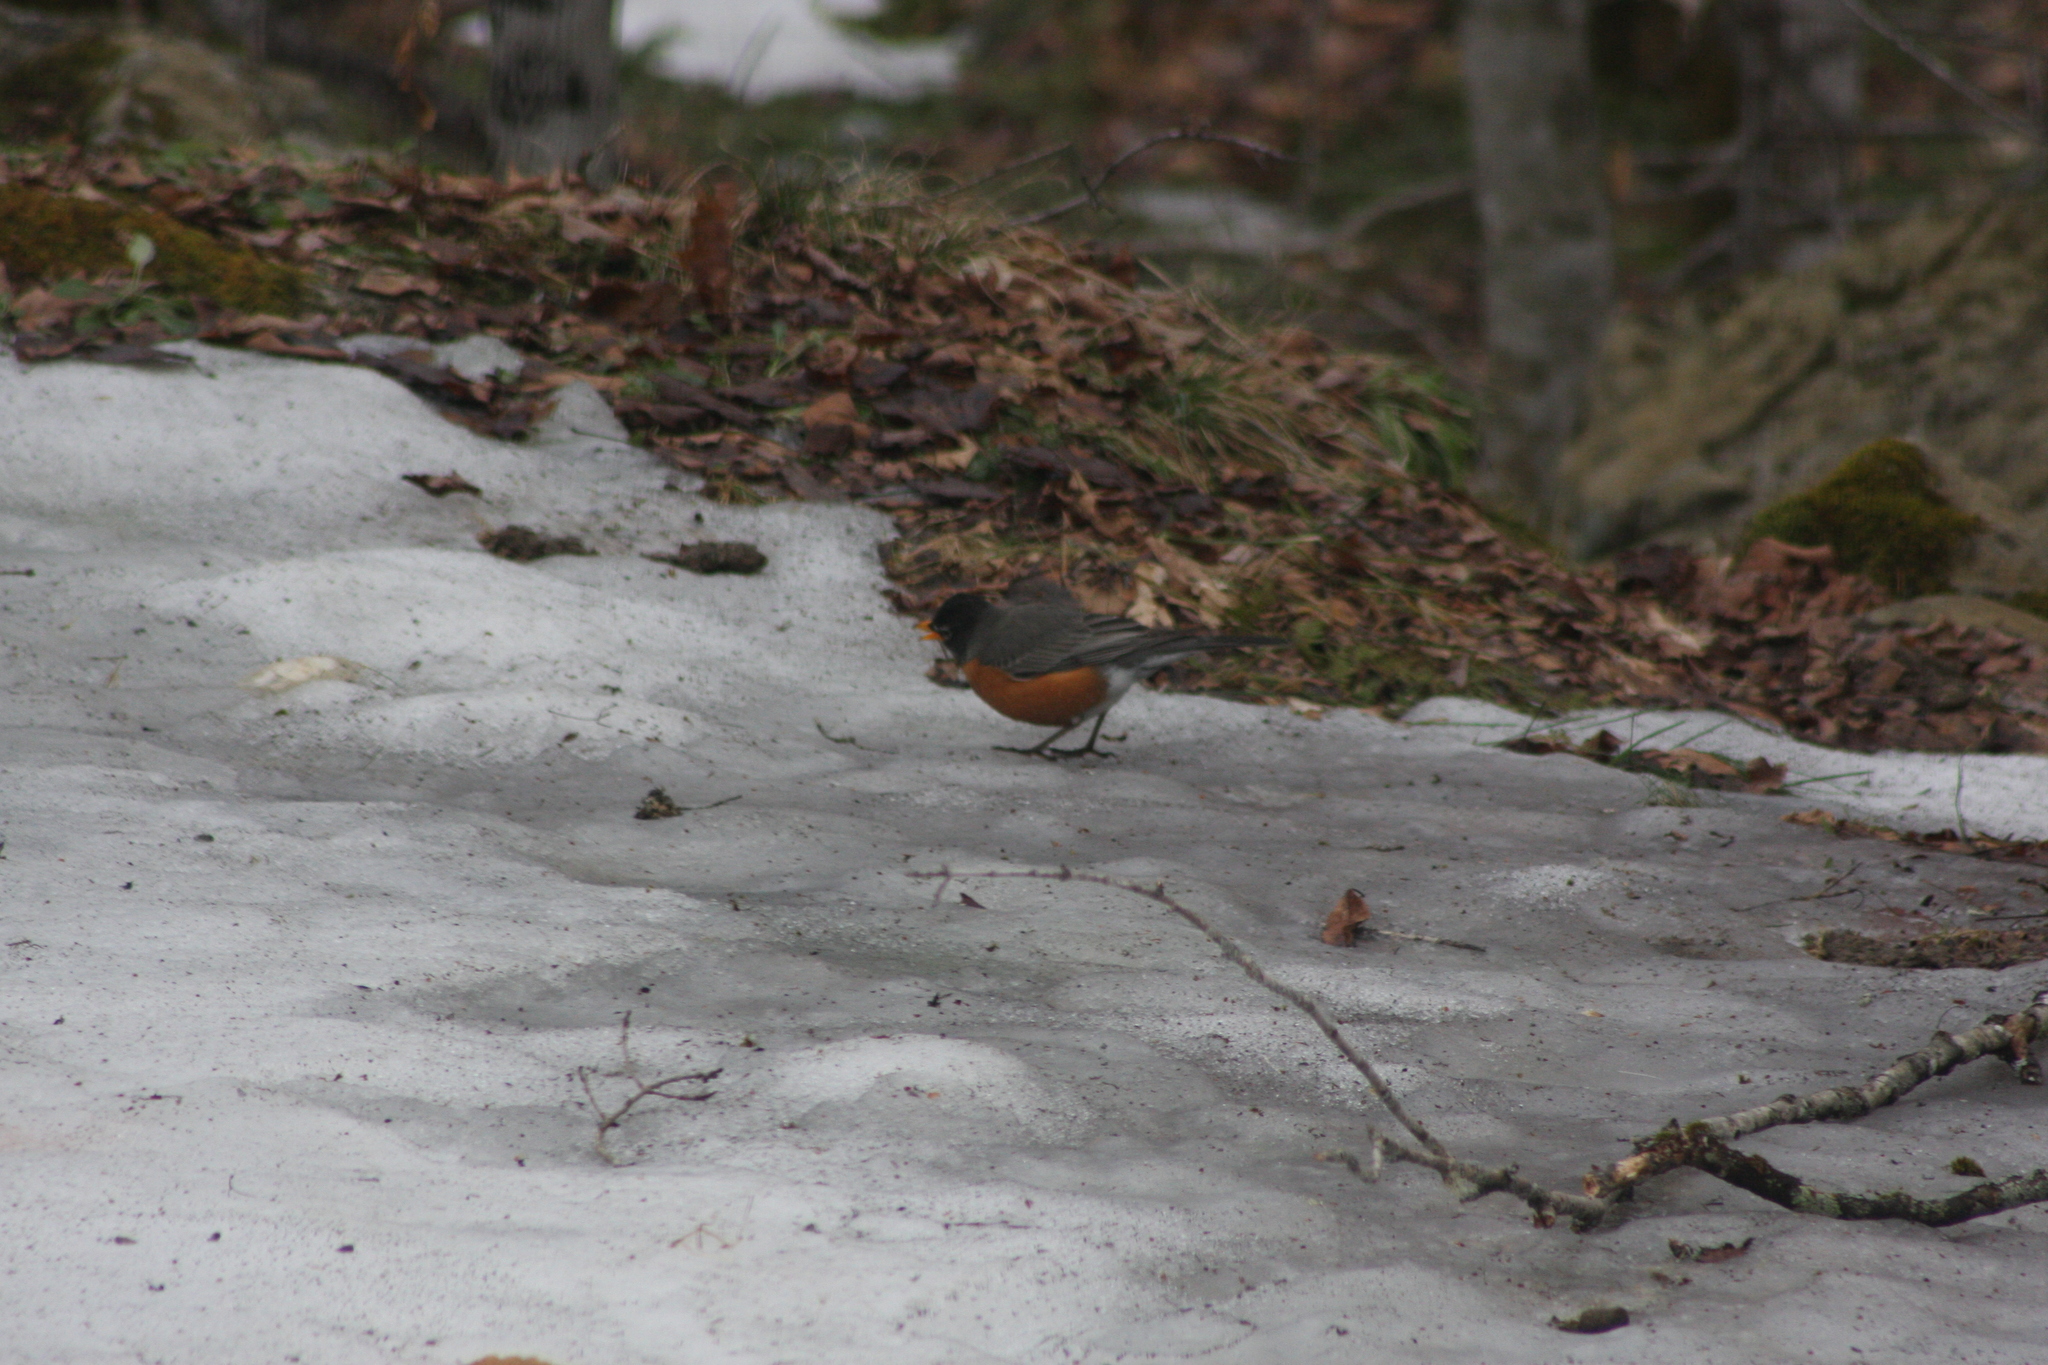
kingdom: Animalia
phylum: Chordata
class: Aves
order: Passeriformes
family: Turdidae
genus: Turdus
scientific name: Turdus migratorius
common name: American robin
